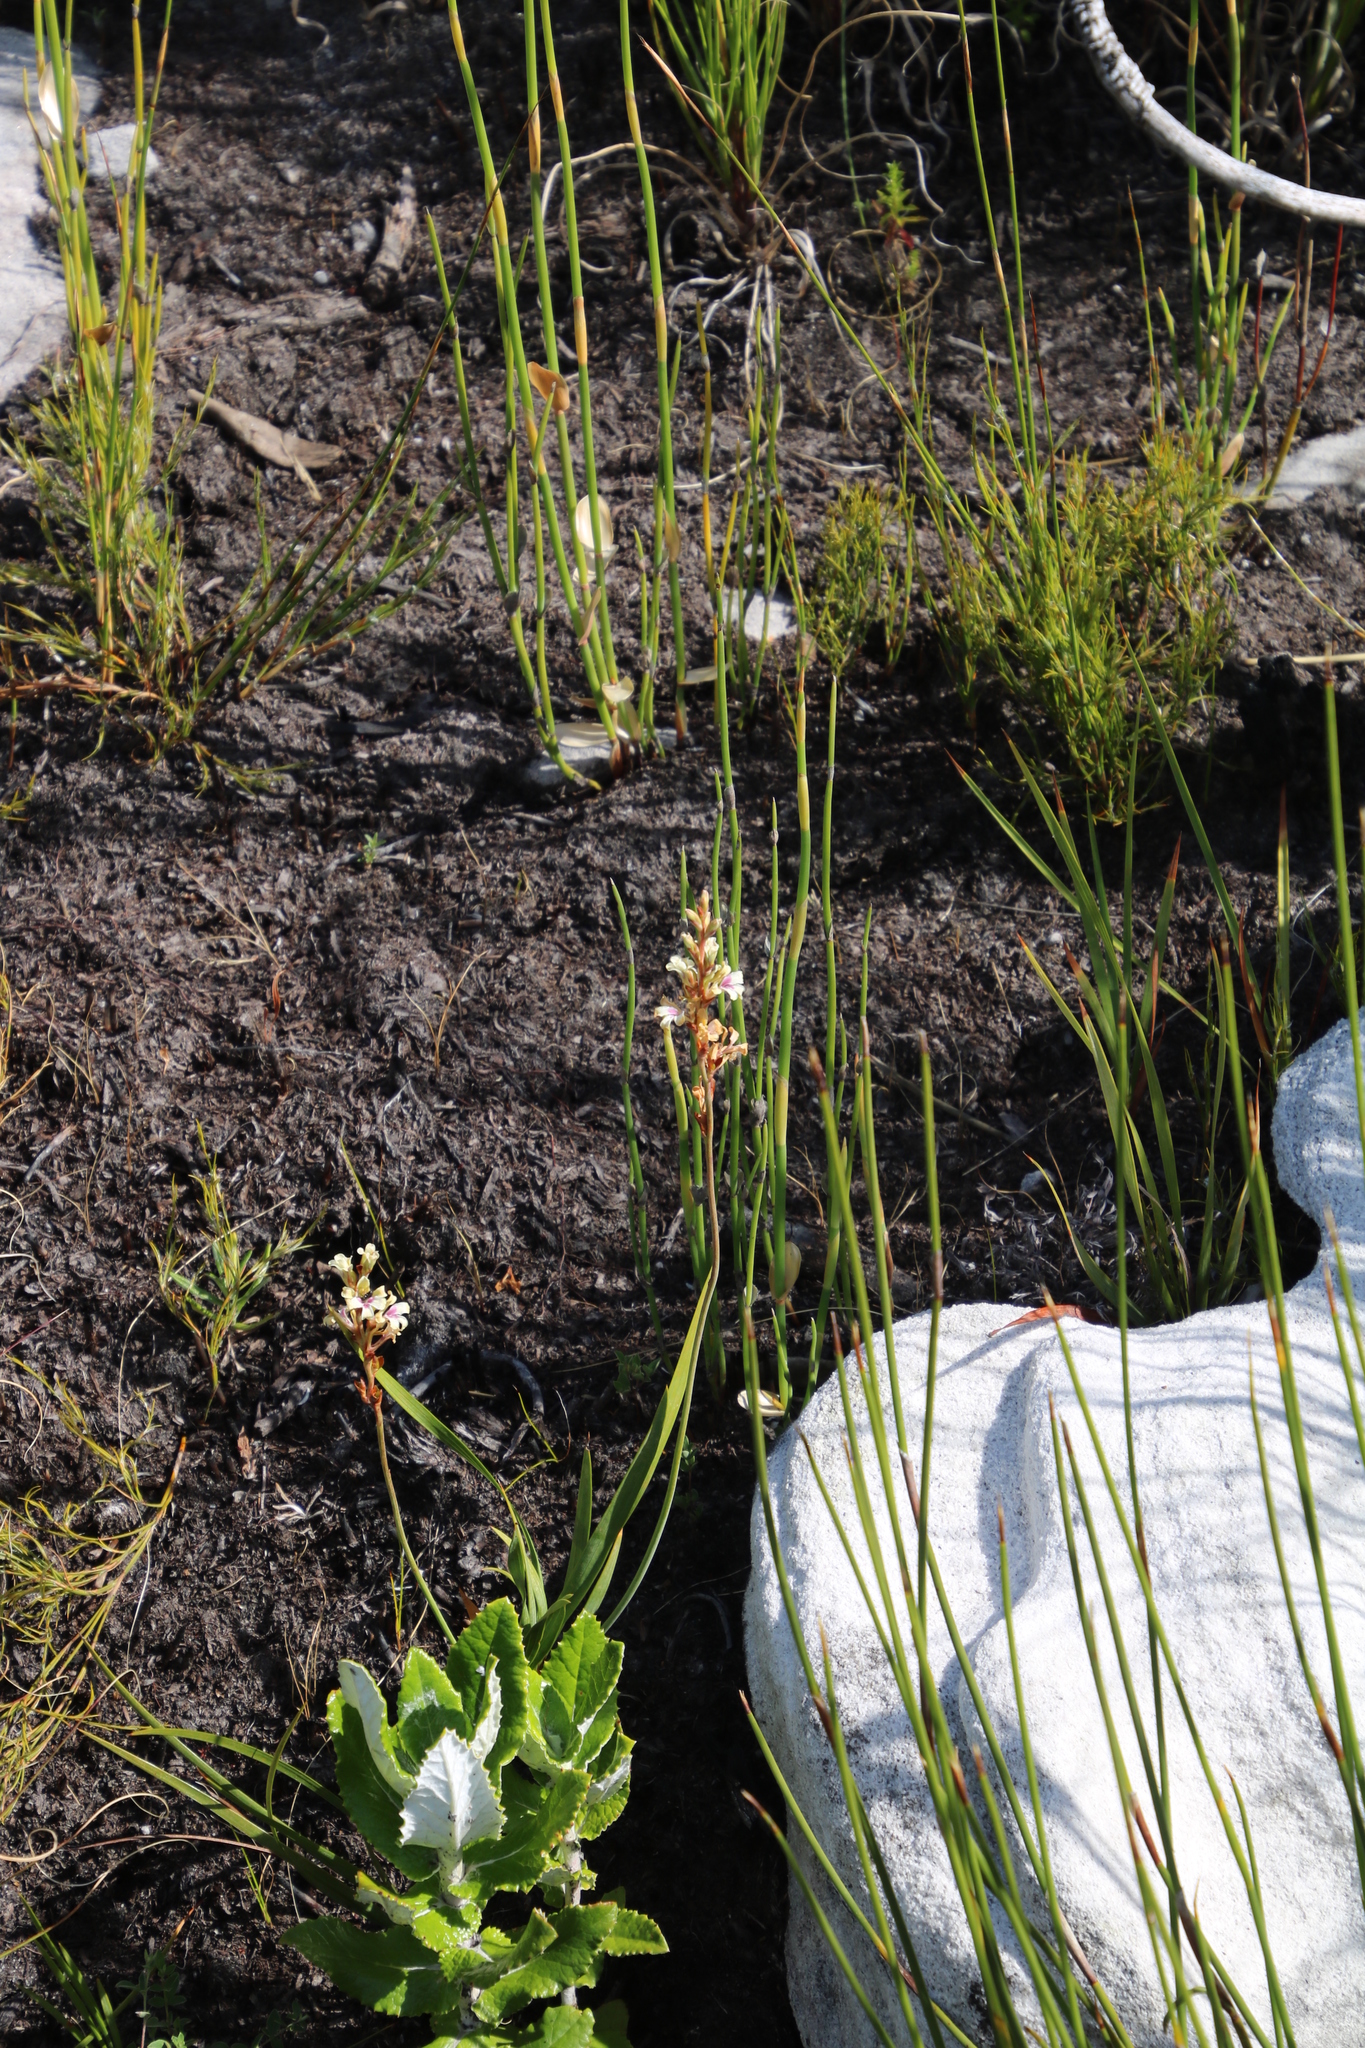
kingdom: Plantae
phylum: Tracheophyta
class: Liliopsida
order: Asparagales
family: Iridaceae
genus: Tritoniopsis
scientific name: Tritoniopsis unguicularis
